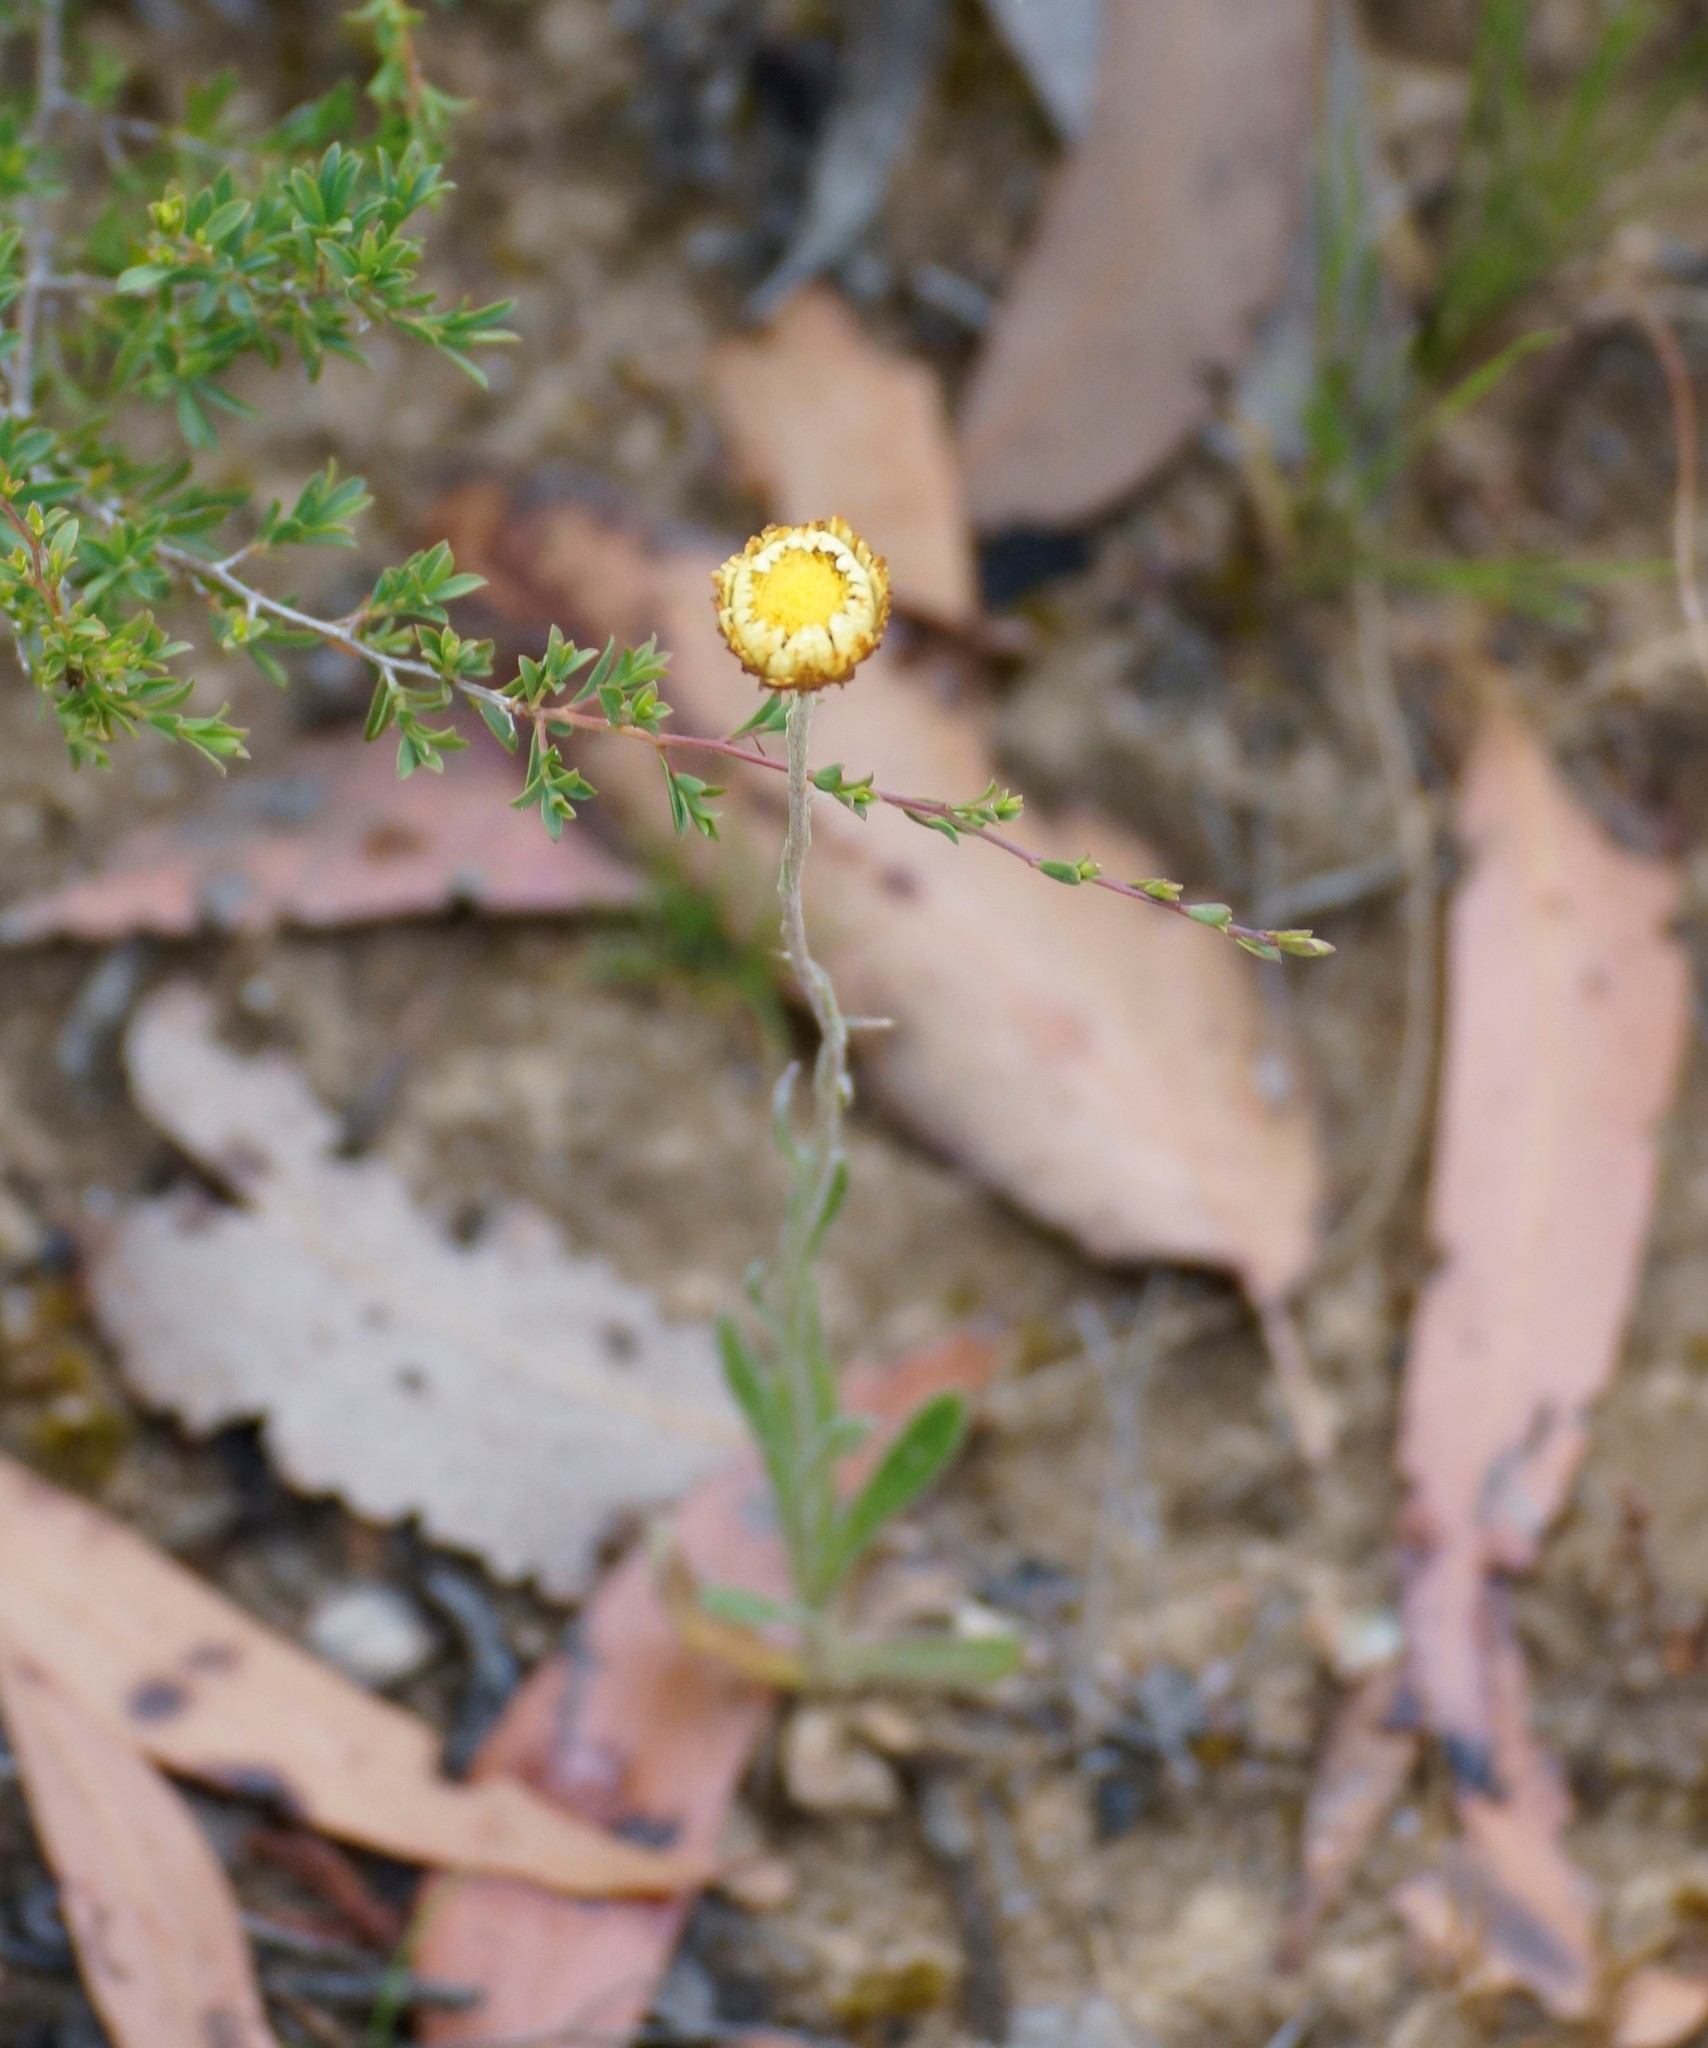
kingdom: Plantae
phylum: Tracheophyta
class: Magnoliopsida
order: Asterales
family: Asteraceae
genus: Coronidium
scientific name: Coronidium scorpioides
